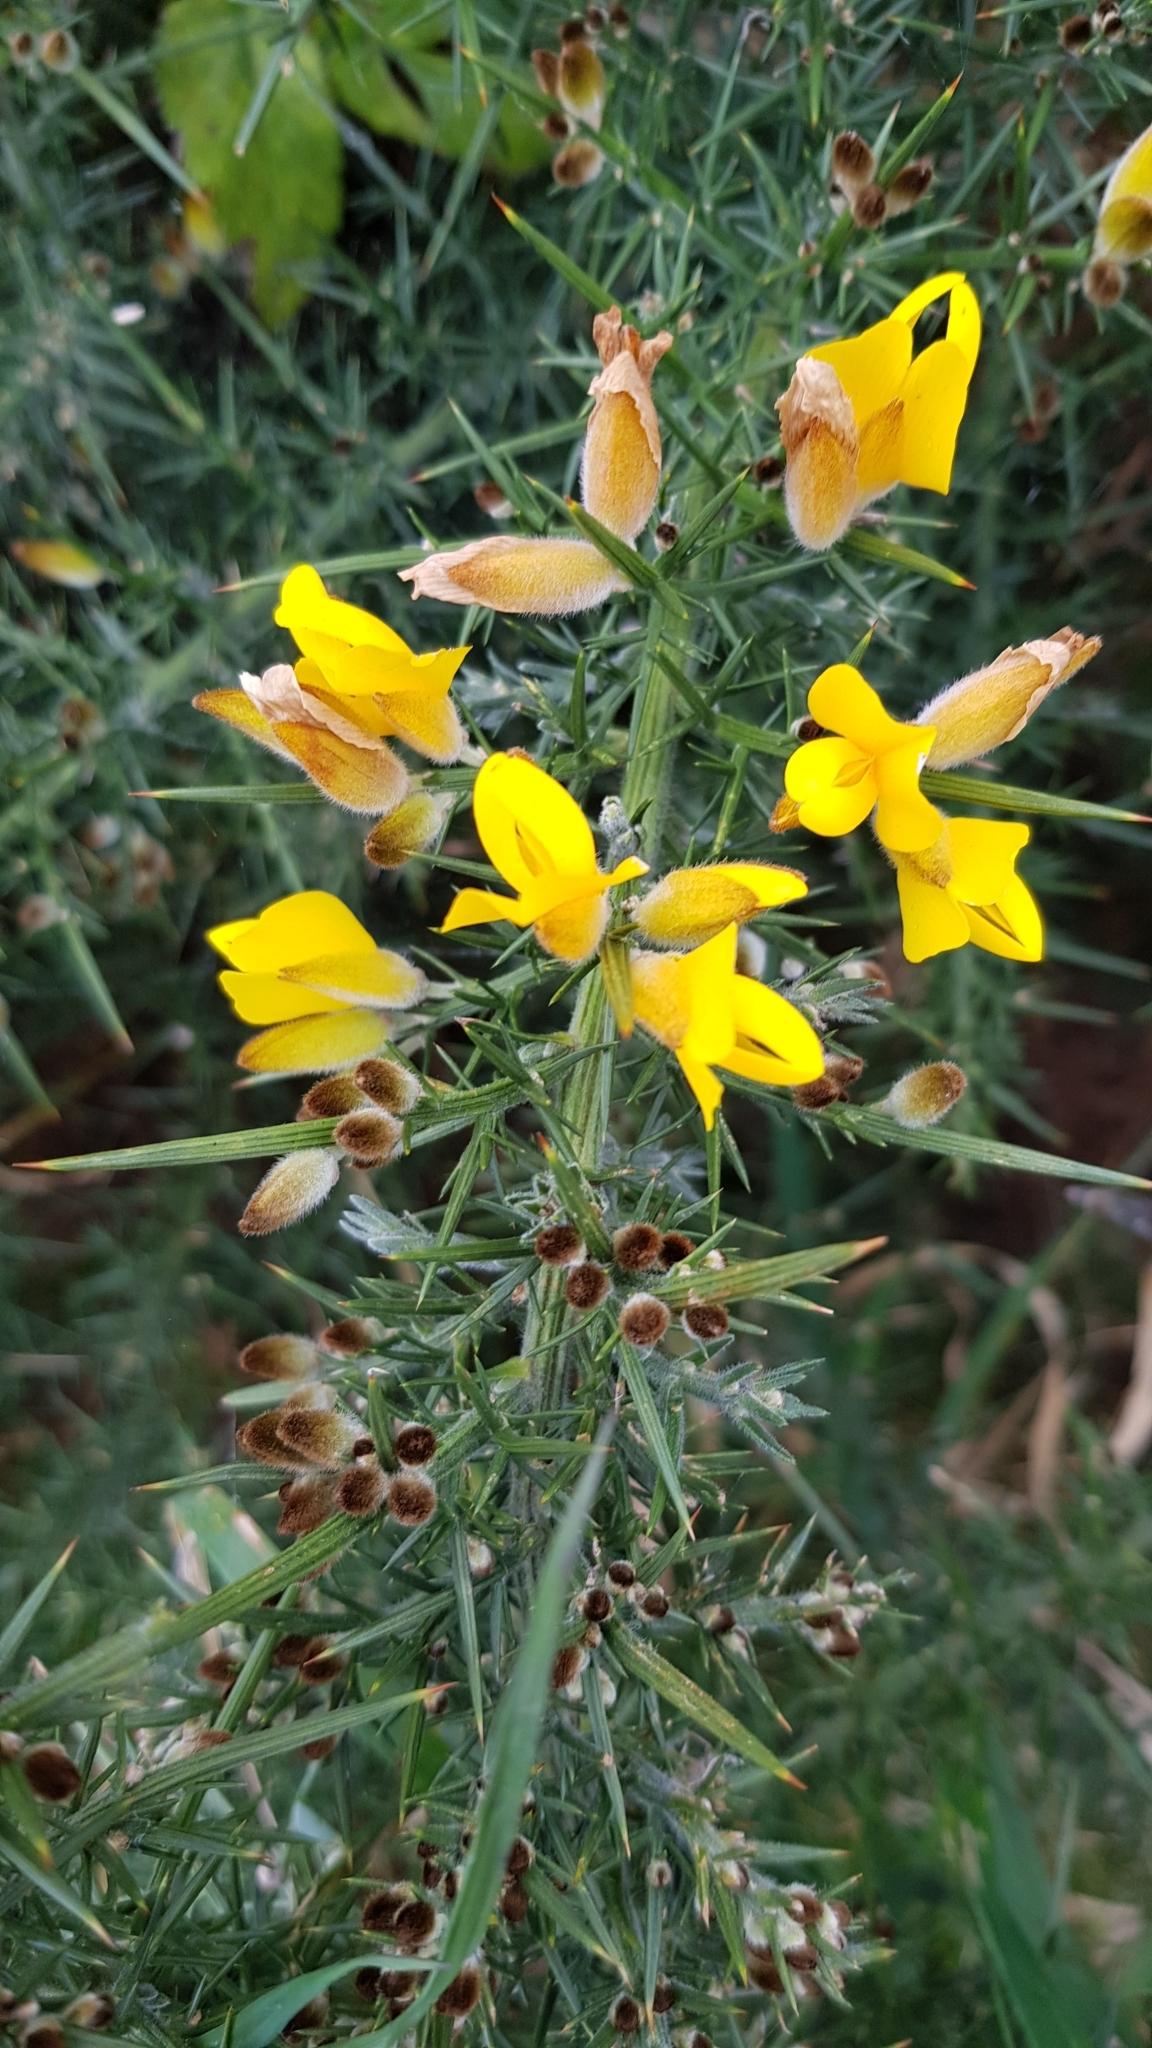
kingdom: Plantae
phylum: Tracheophyta
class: Magnoliopsida
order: Fabales
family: Fabaceae
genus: Ulex
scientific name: Ulex europaeus
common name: Common gorse
